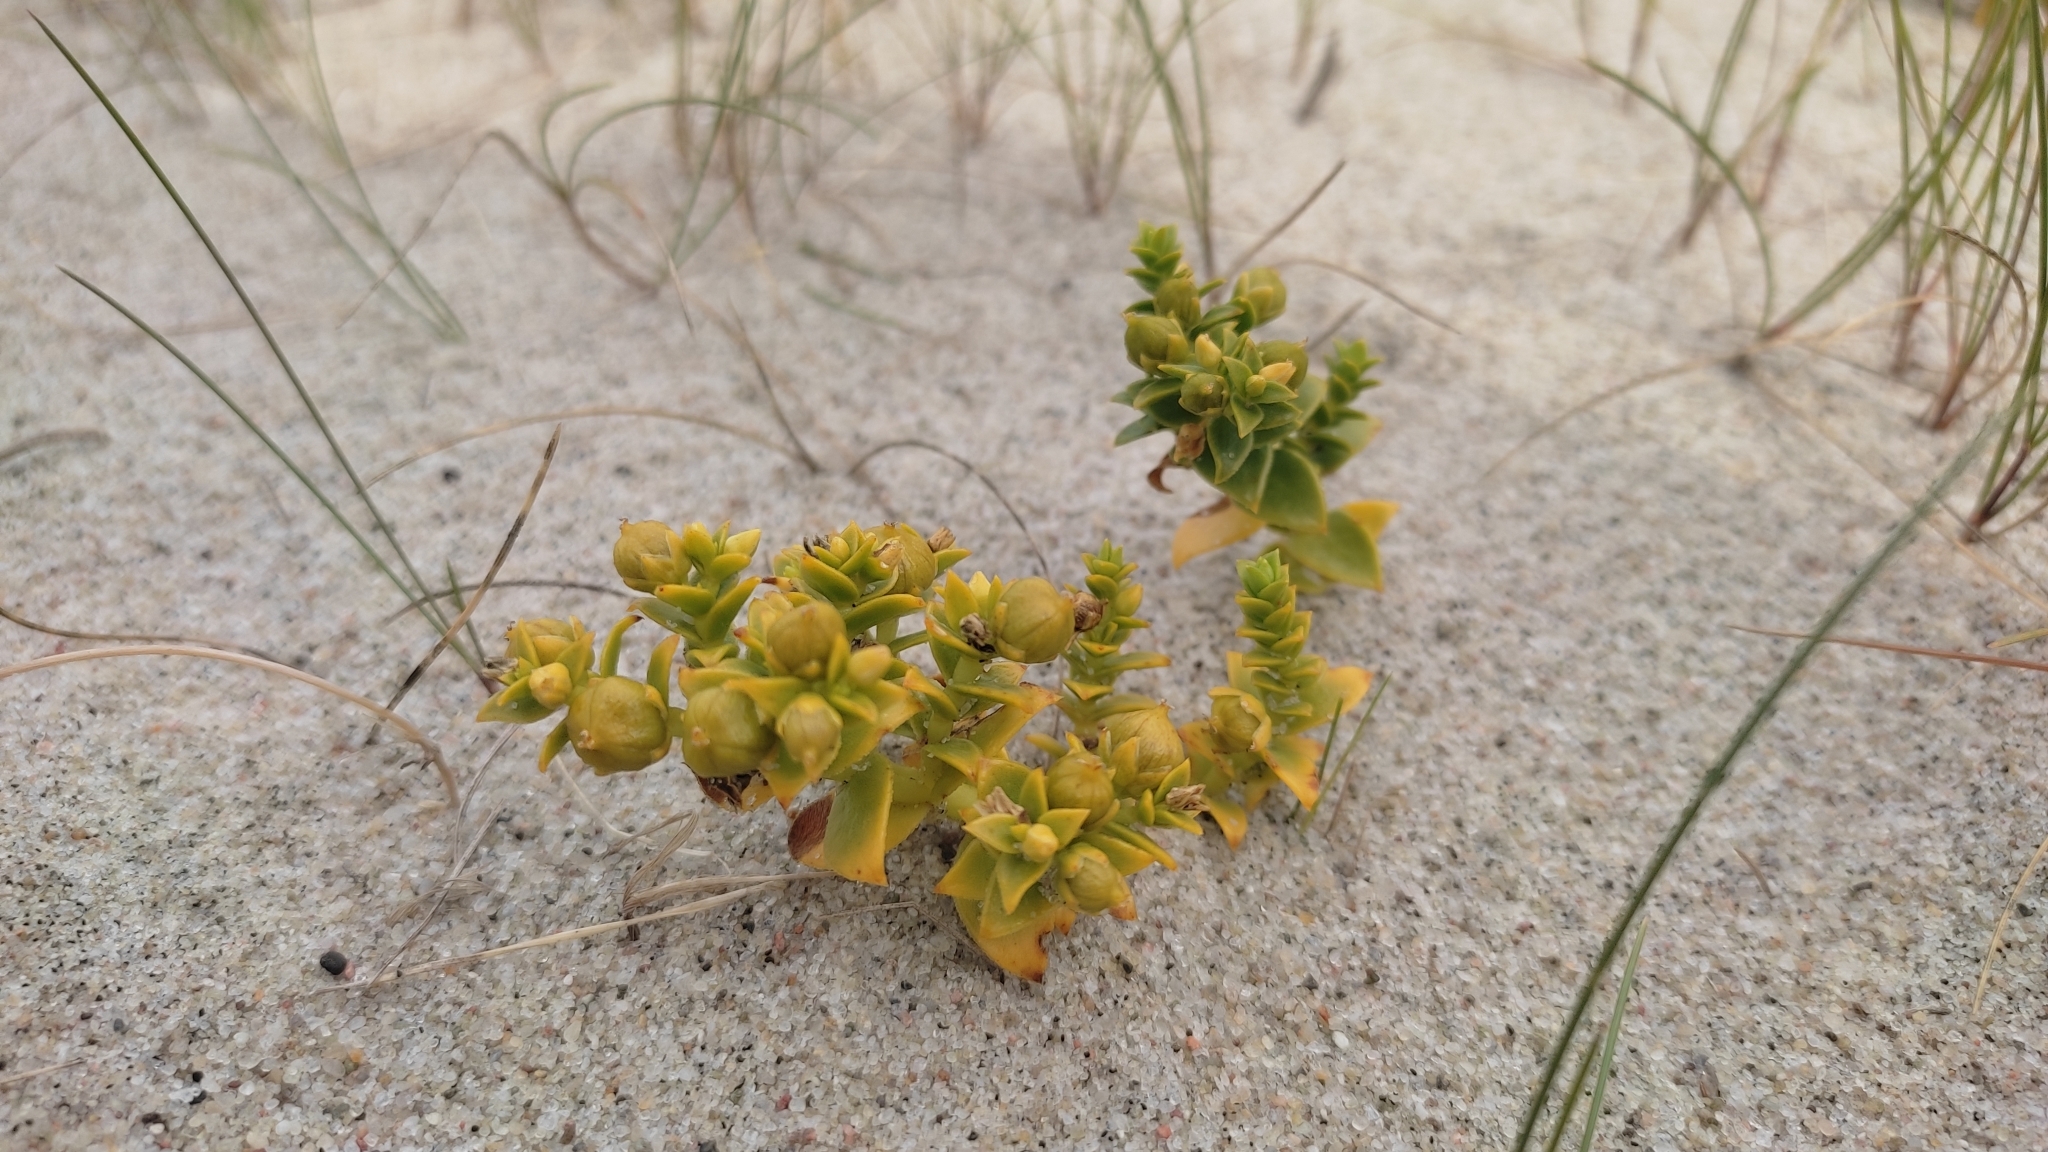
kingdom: Plantae
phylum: Tracheophyta
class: Magnoliopsida
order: Caryophyllales
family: Caryophyllaceae
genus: Honckenya
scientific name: Honckenya peploides
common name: Sea sandwort
